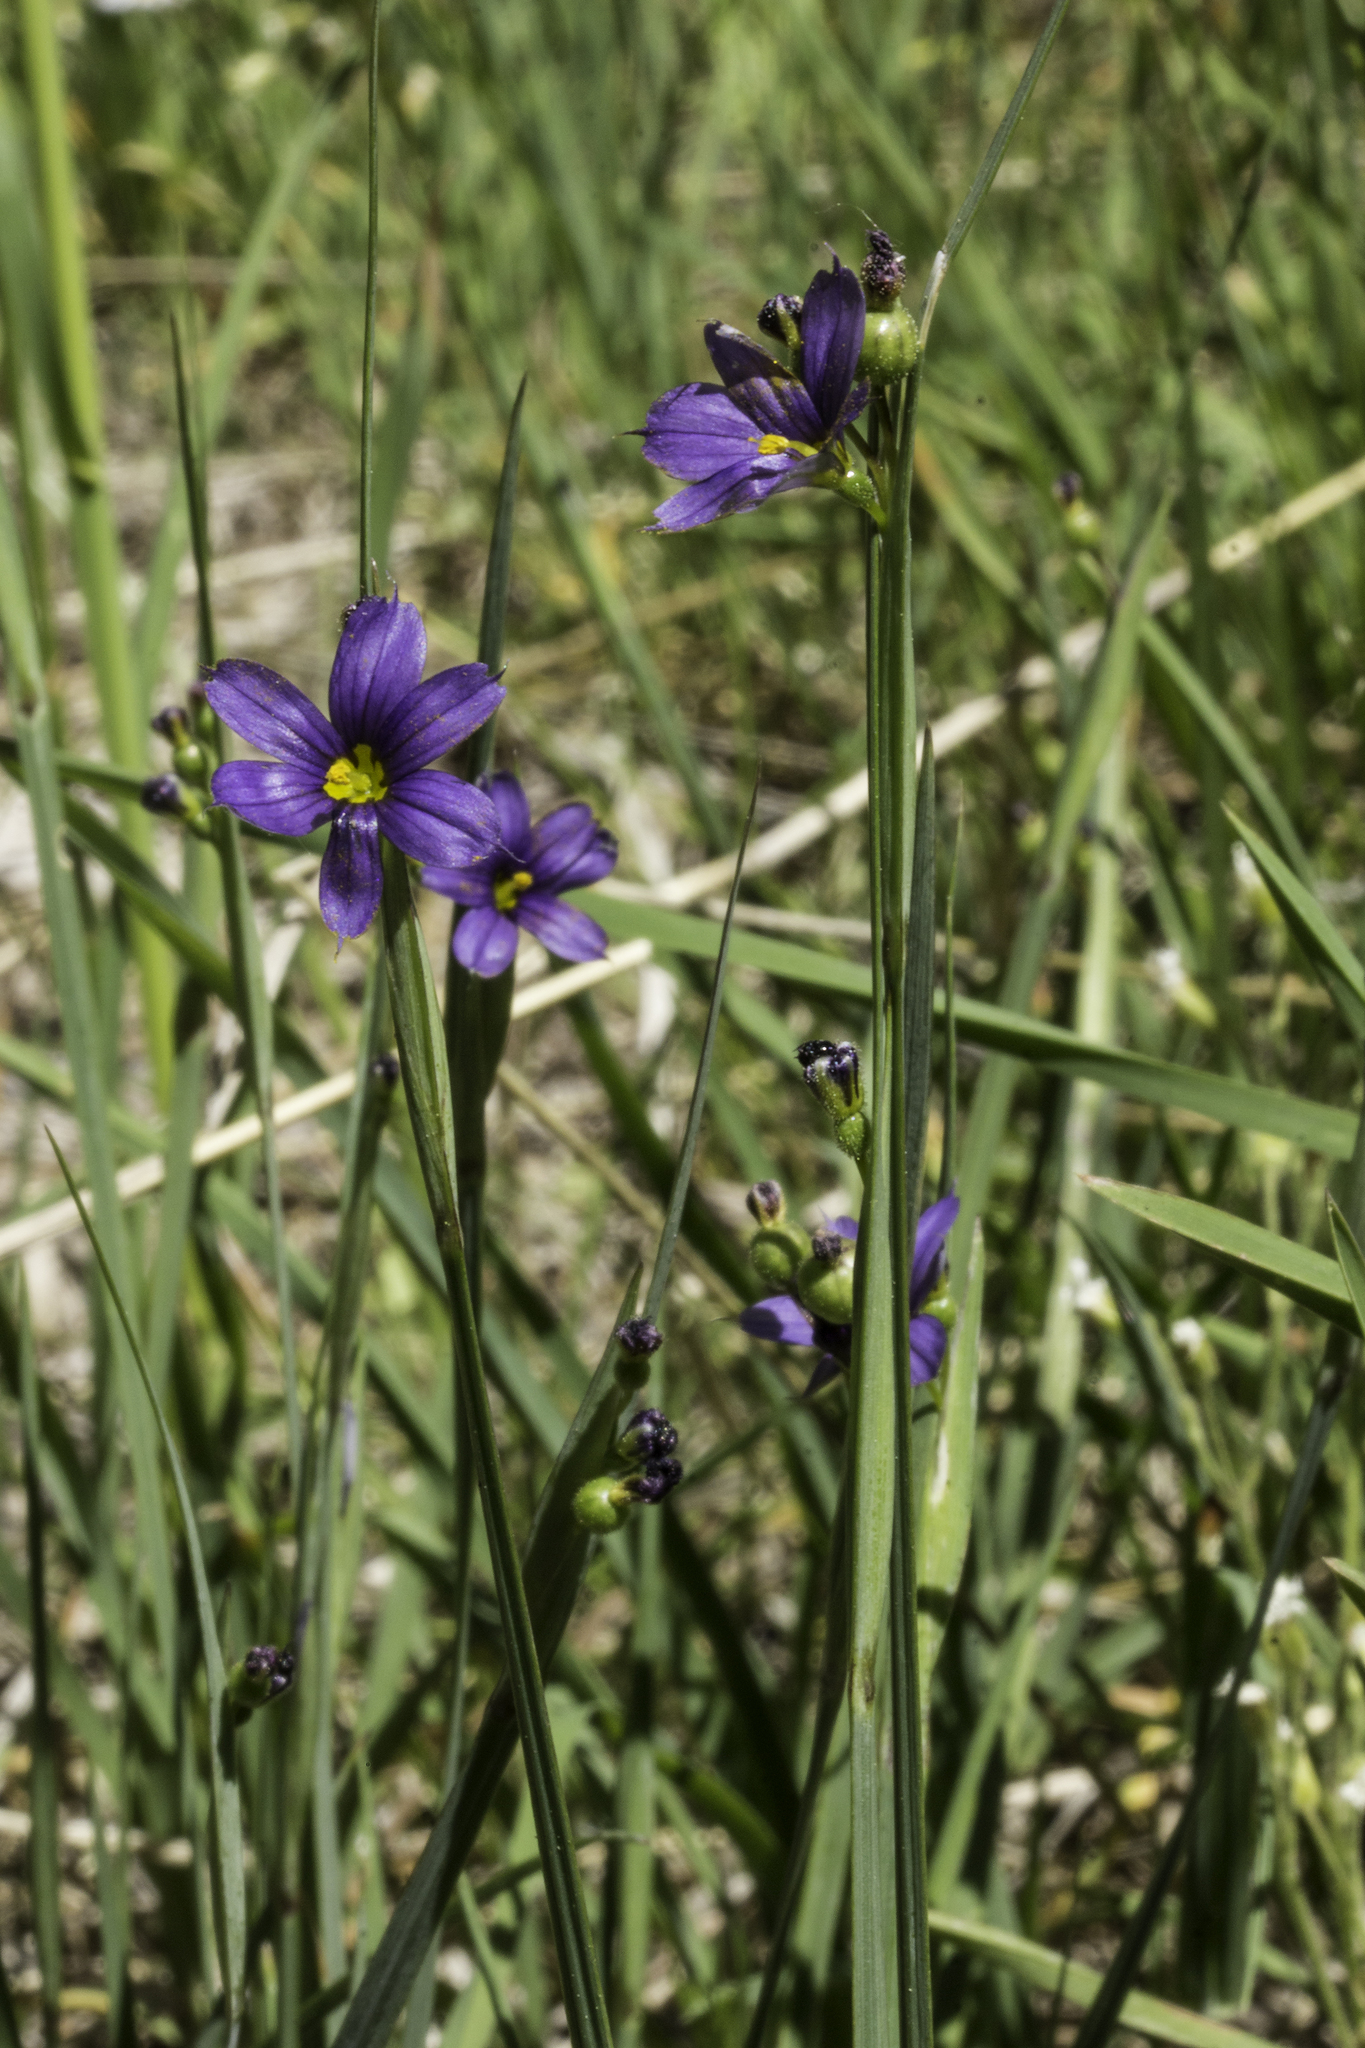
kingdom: Plantae
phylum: Tracheophyta
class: Liliopsida
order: Asparagales
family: Iridaceae
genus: Sisyrinchium
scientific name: Sisyrinchium montanum
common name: American blue-eyed-grass
